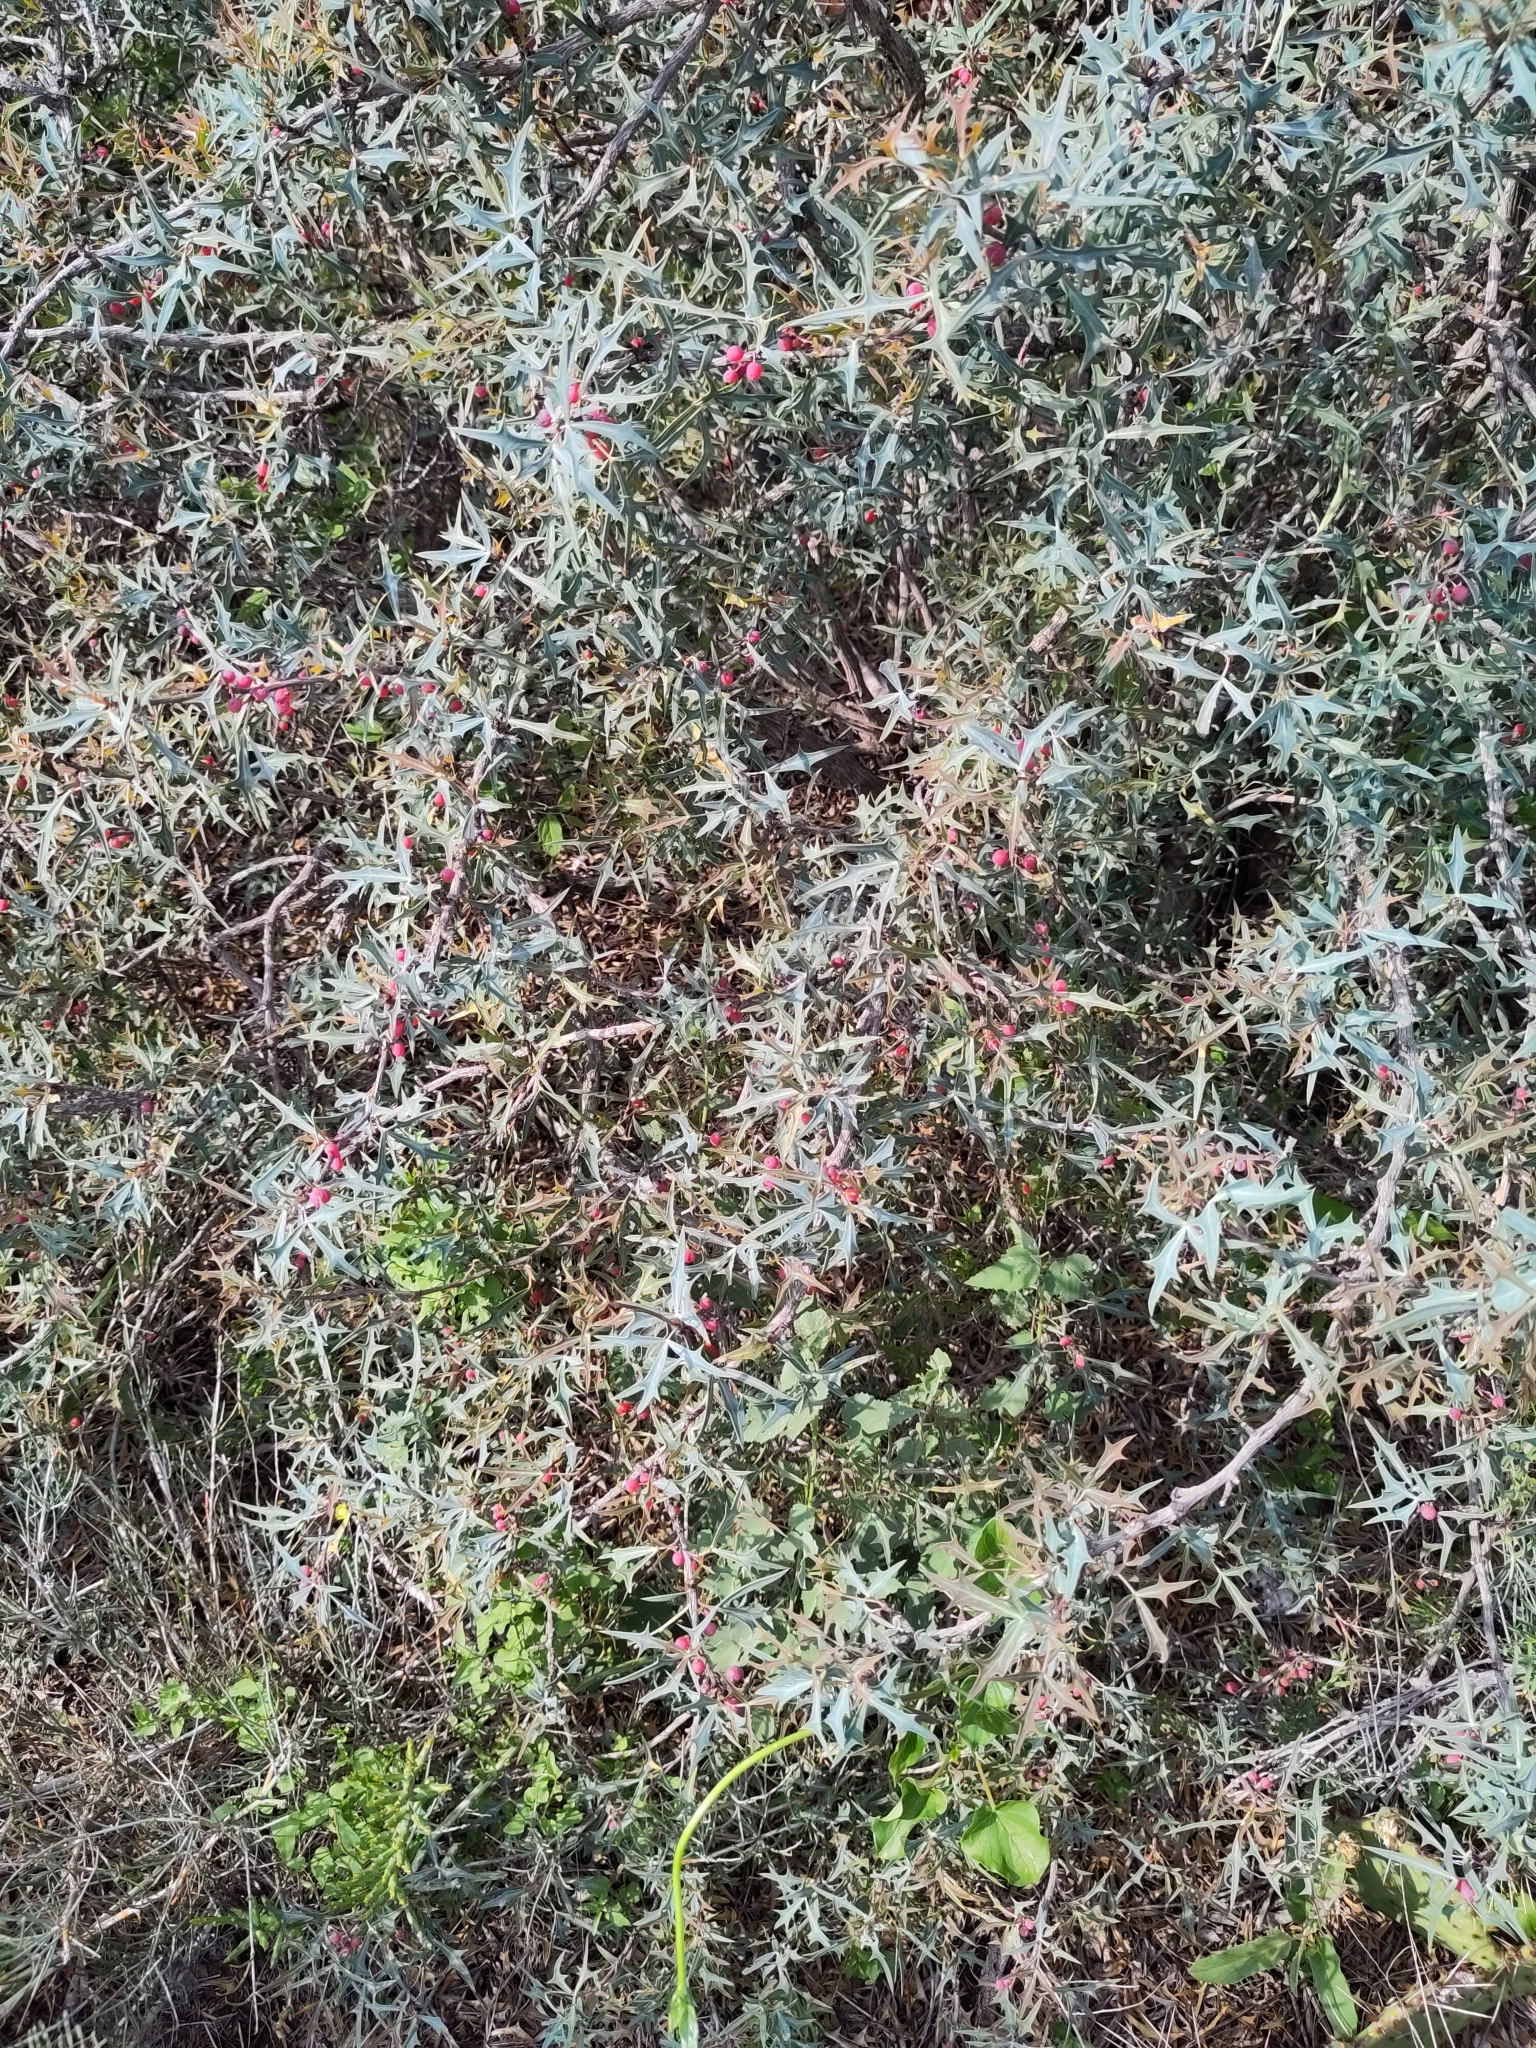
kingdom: Plantae
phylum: Tracheophyta
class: Magnoliopsida
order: Ranunculales
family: Berberidaceae
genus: Alloberberis
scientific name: Alloberberis trifoliolata
